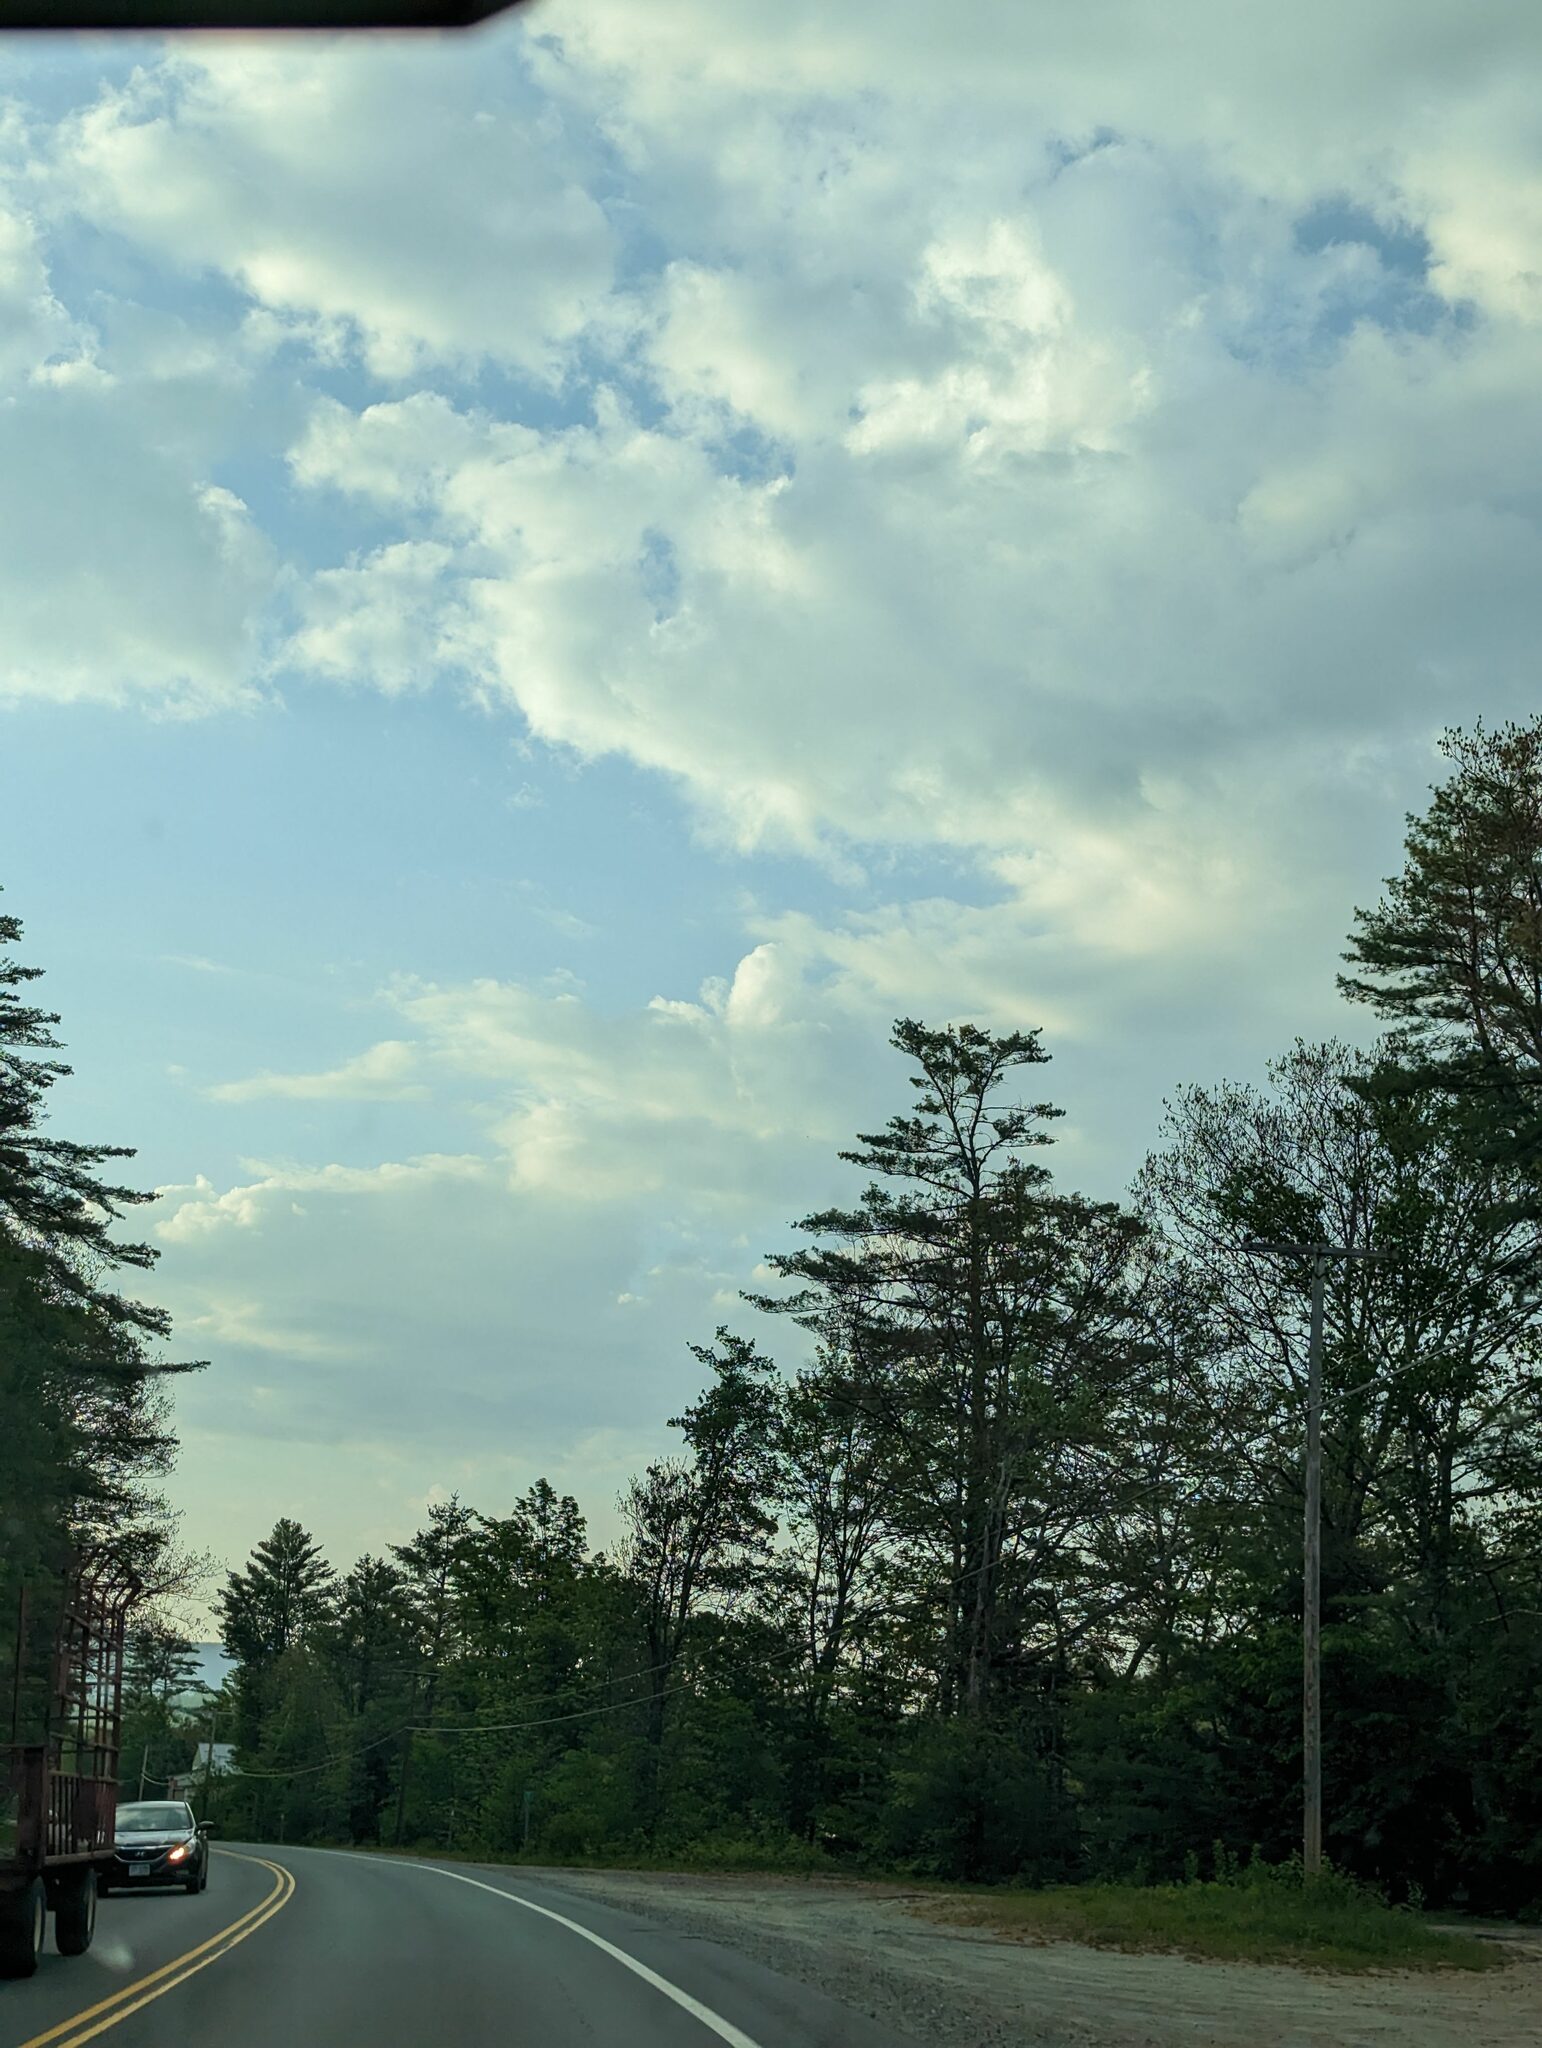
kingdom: Plantae
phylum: Tracheophyta
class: Pinopsida
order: Pinales
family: Pinaceae
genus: Pinus
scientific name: Pinus strobus
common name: Weymouth pine
